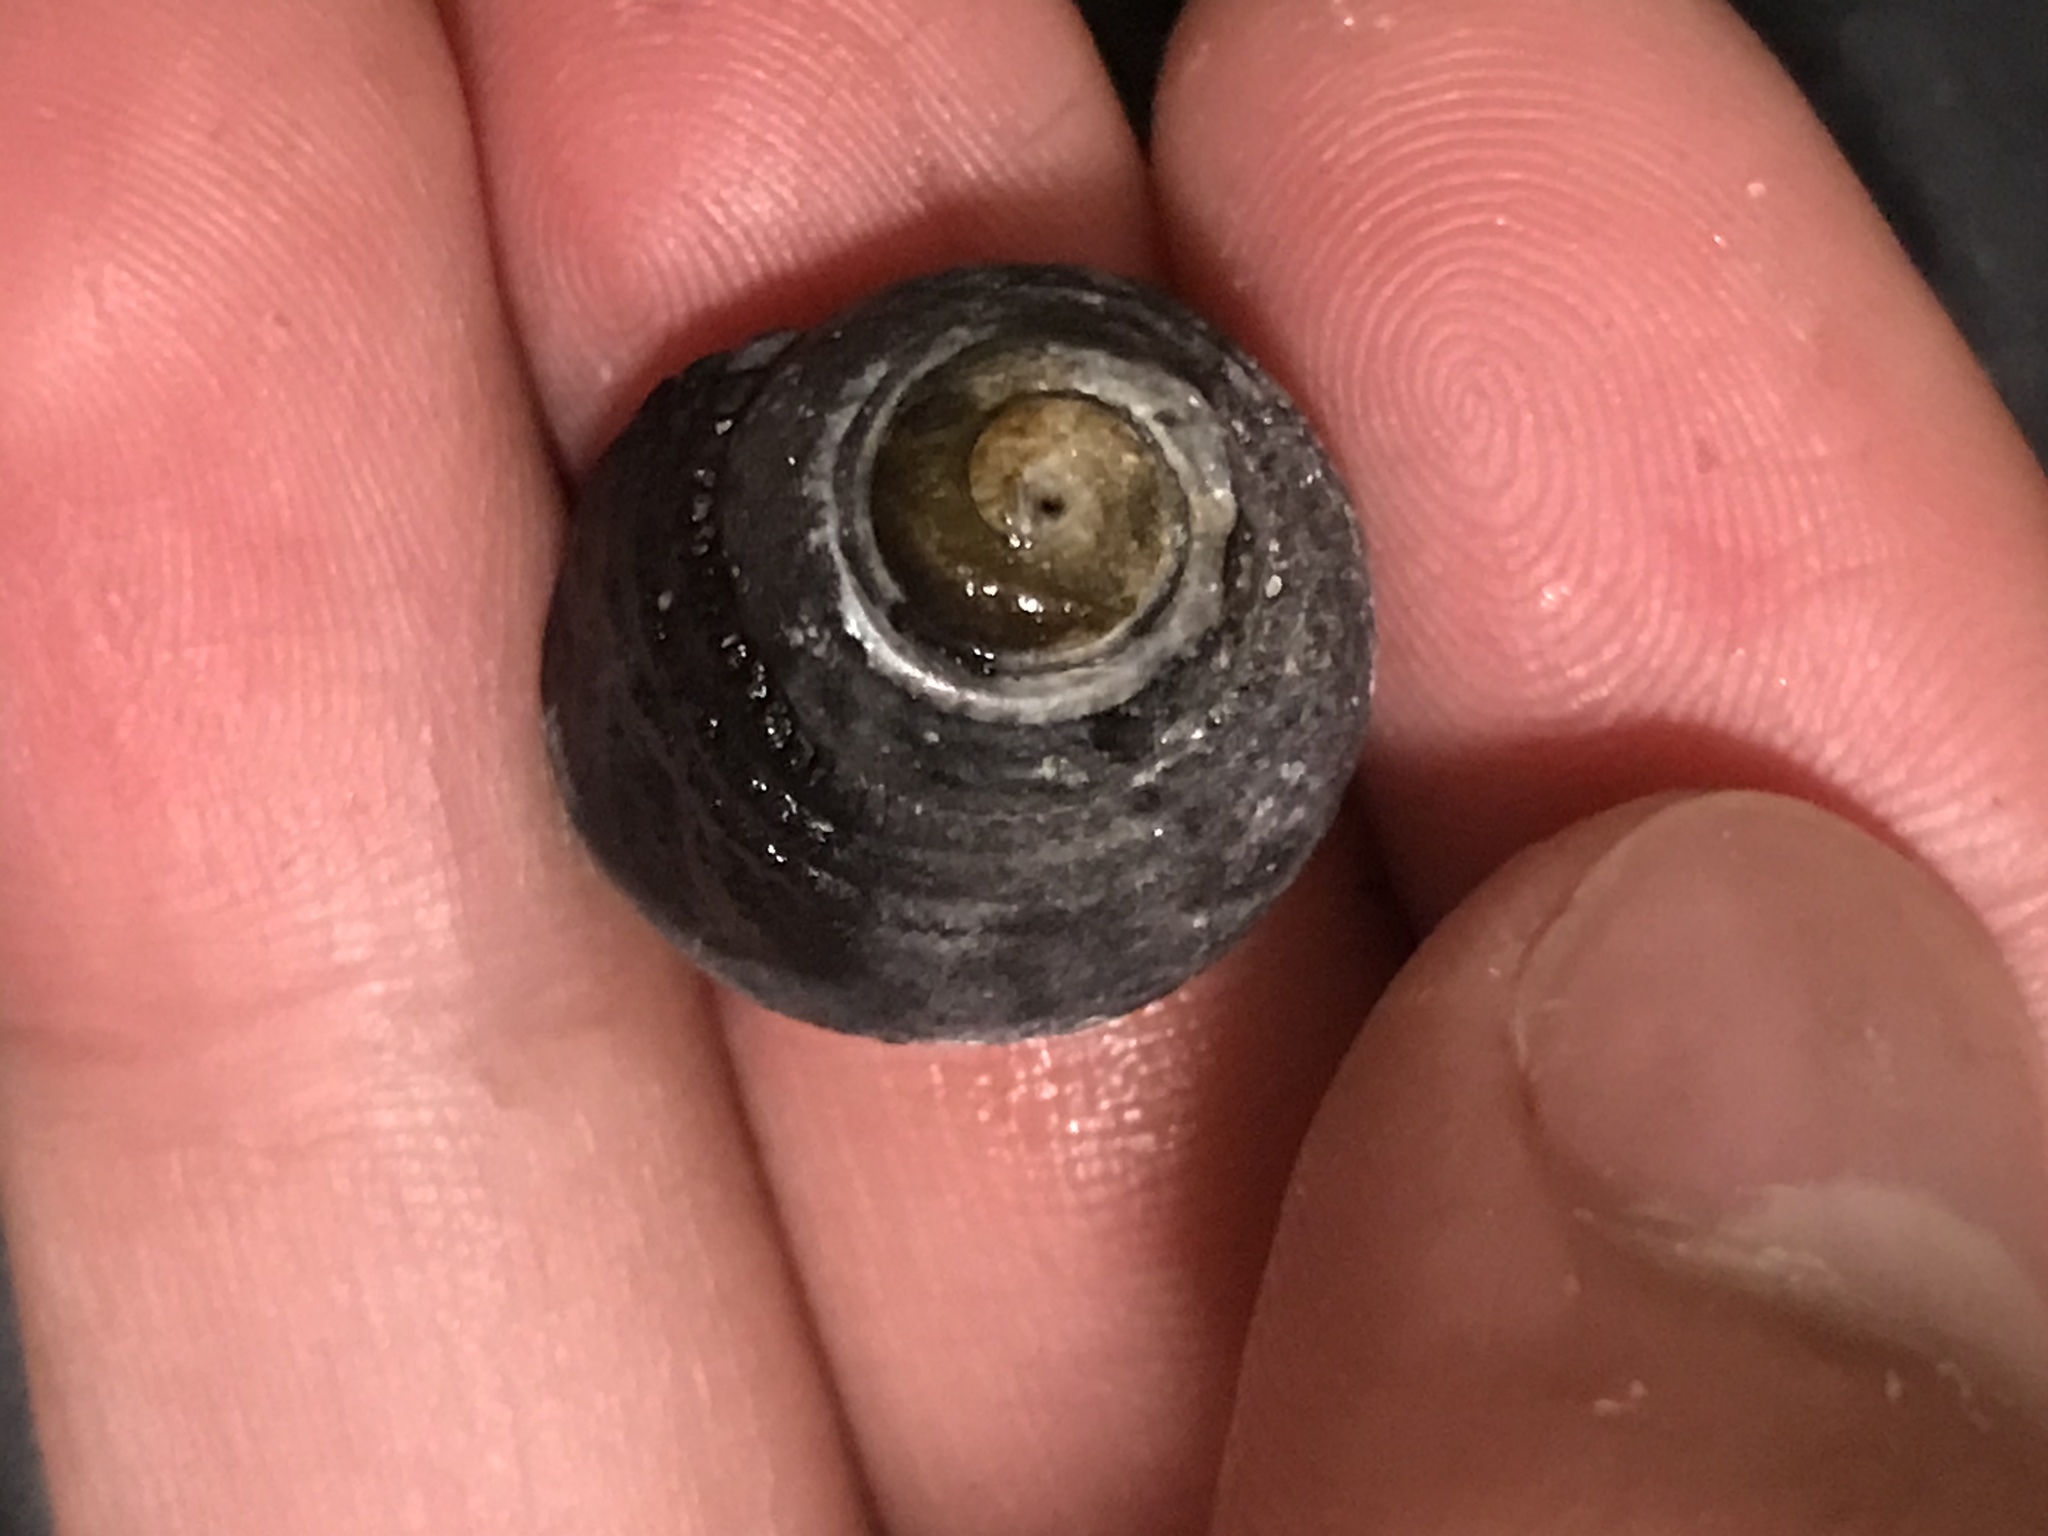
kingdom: Animalia
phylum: Mollusca
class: Gastropoda
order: Trochida
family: Tegulidae
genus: Tegula
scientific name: Tegula funebralis
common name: Black tegula
